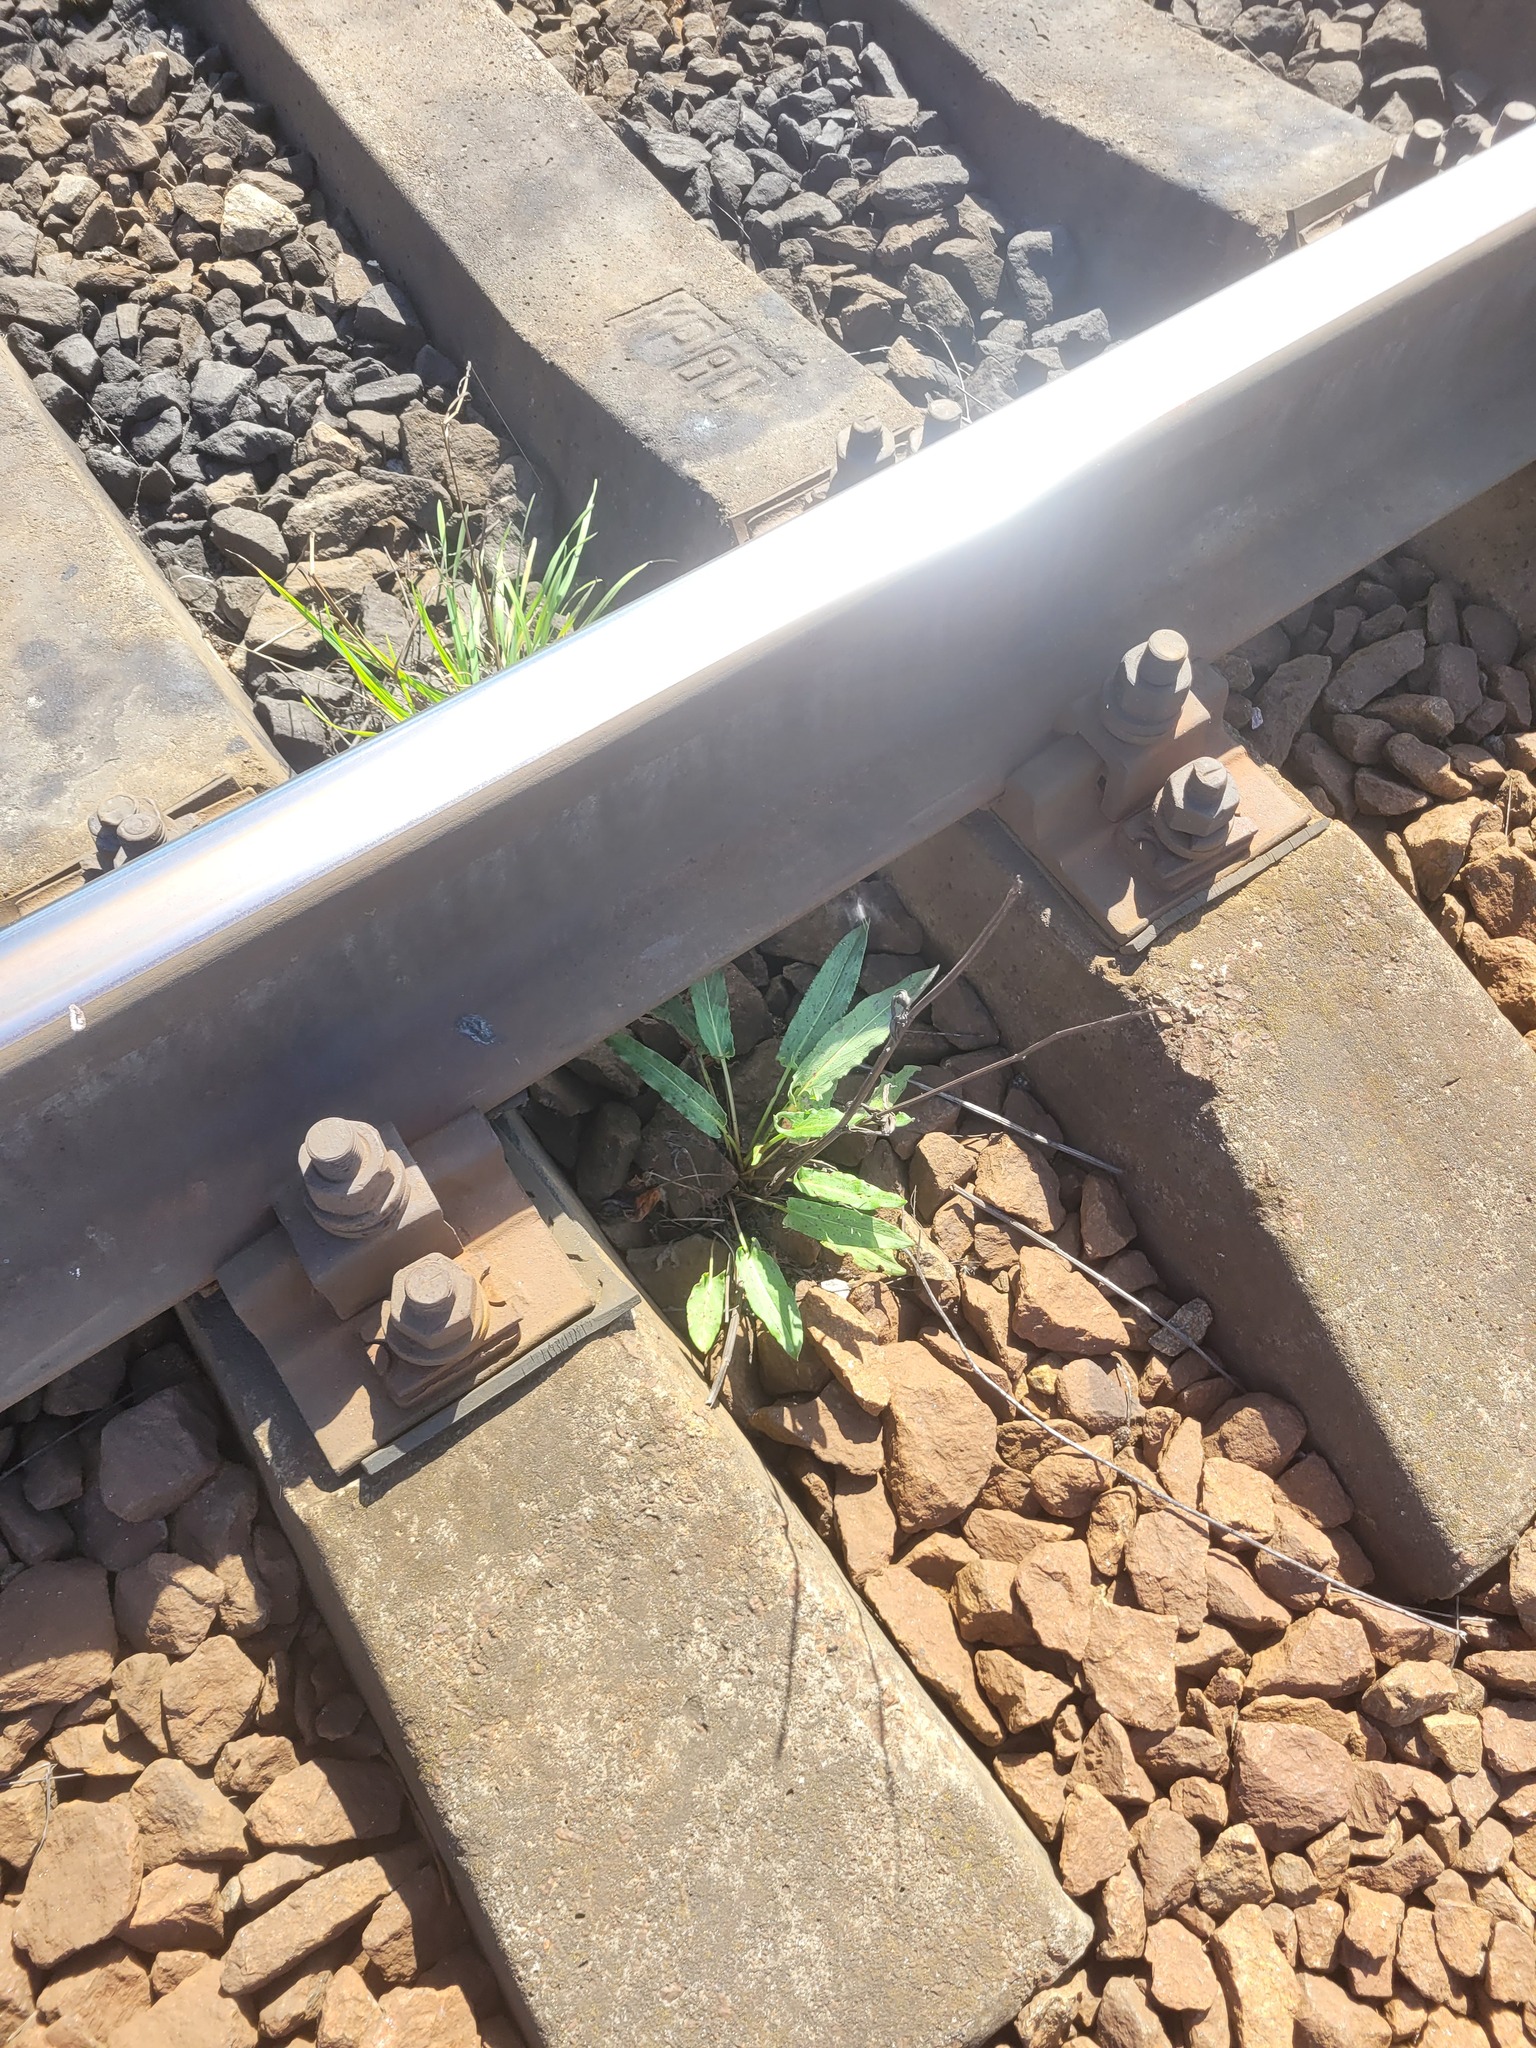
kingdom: Plantae
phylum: Tracheophyta
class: Magnoliopsida
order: Caryophyllales
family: Polygonaceae
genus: Rumex
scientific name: Rumex thyrsiflorus
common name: Garden sorrel
